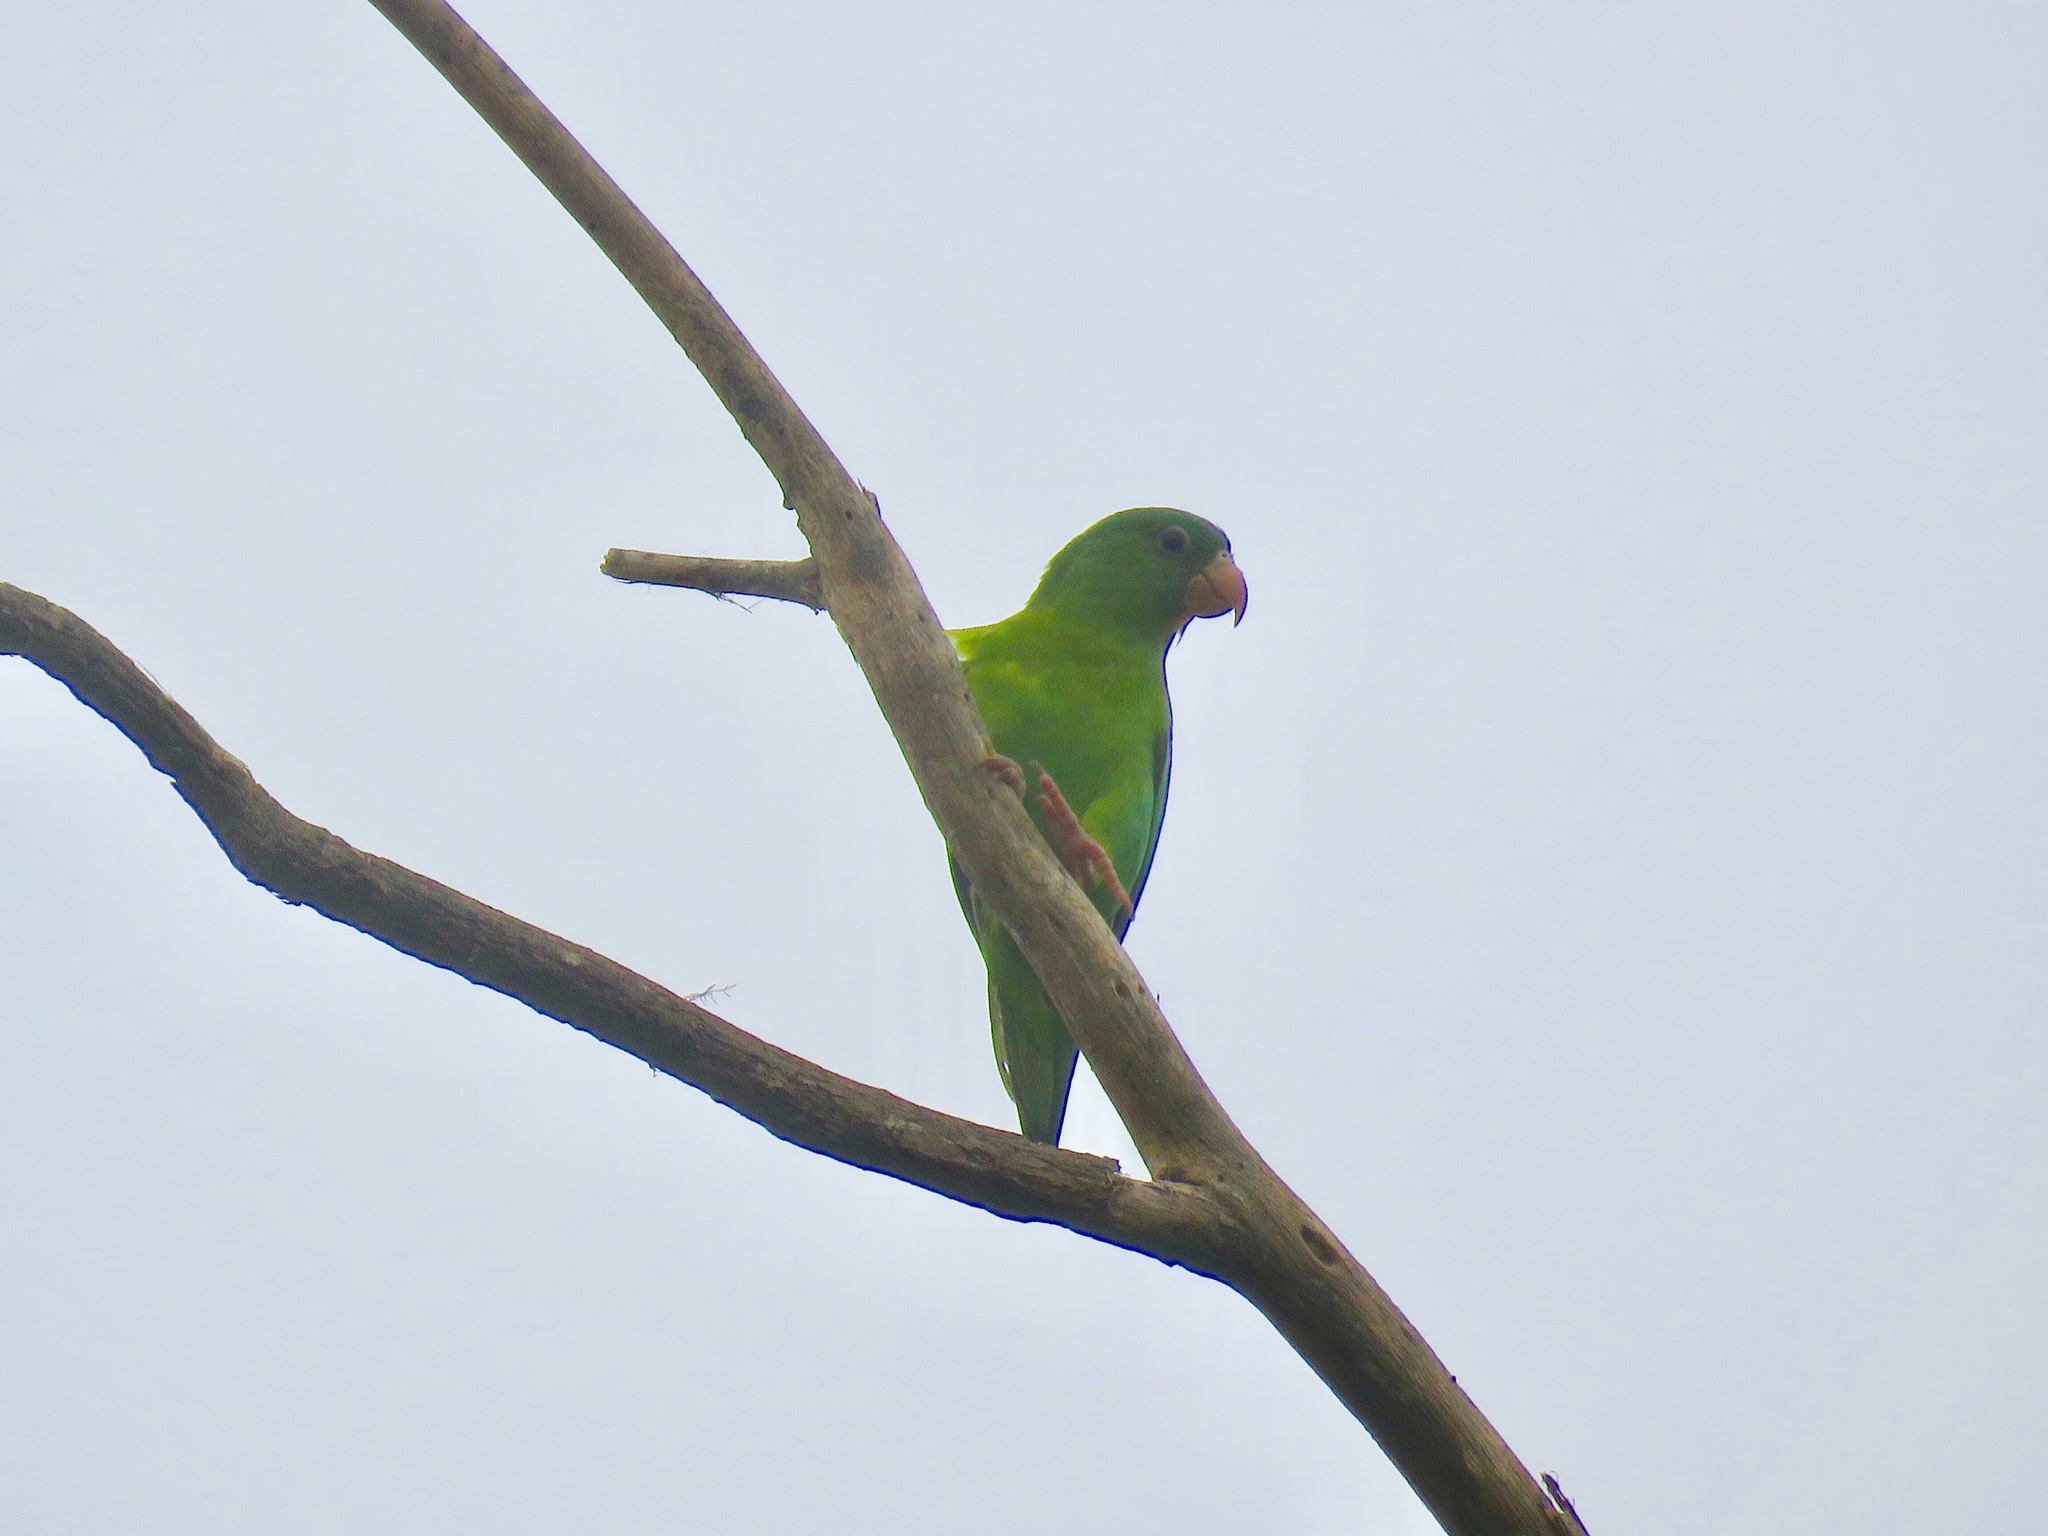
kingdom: Animalia
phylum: Chordata
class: Aves
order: Psittaciformes
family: Psittacidae
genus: Brotogeris
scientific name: Brotogeris jugularis
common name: Orange-chinned parakeet
